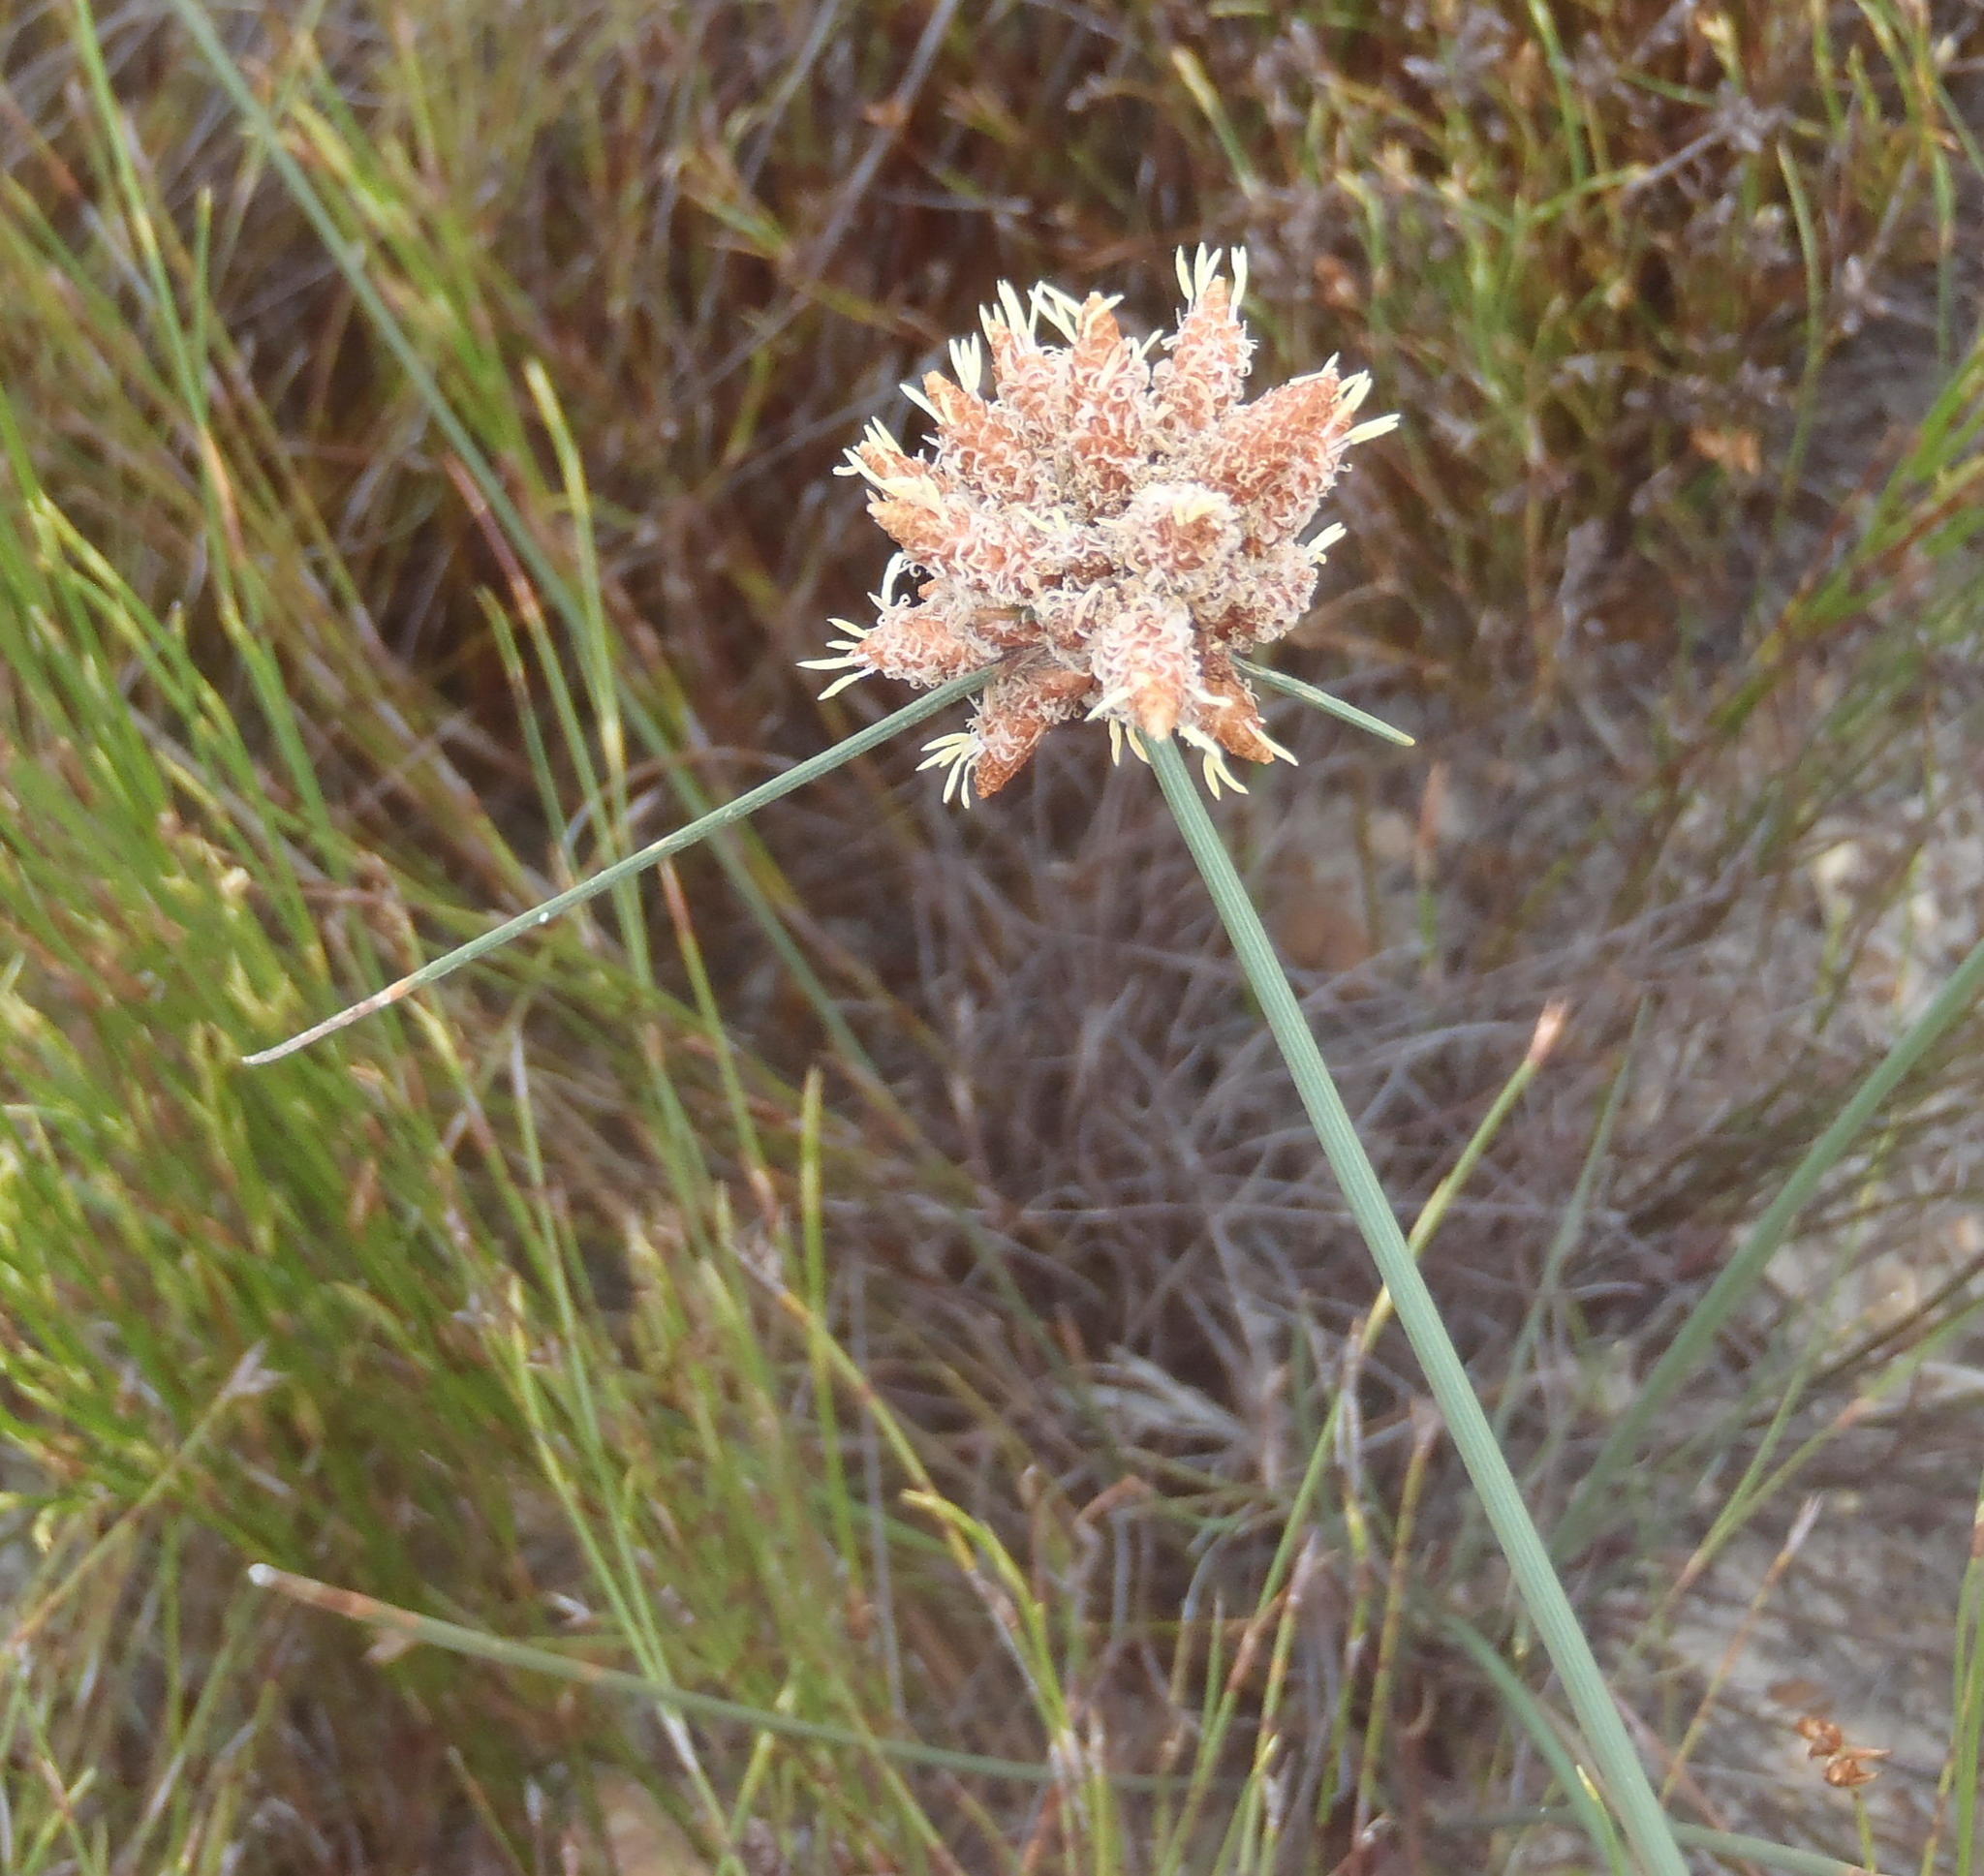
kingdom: Plantae
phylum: Tracheophyta
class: Liliopsida
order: Poales
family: Cyperaceae
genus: Hellmuthia
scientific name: Hellmuthia membranacea
